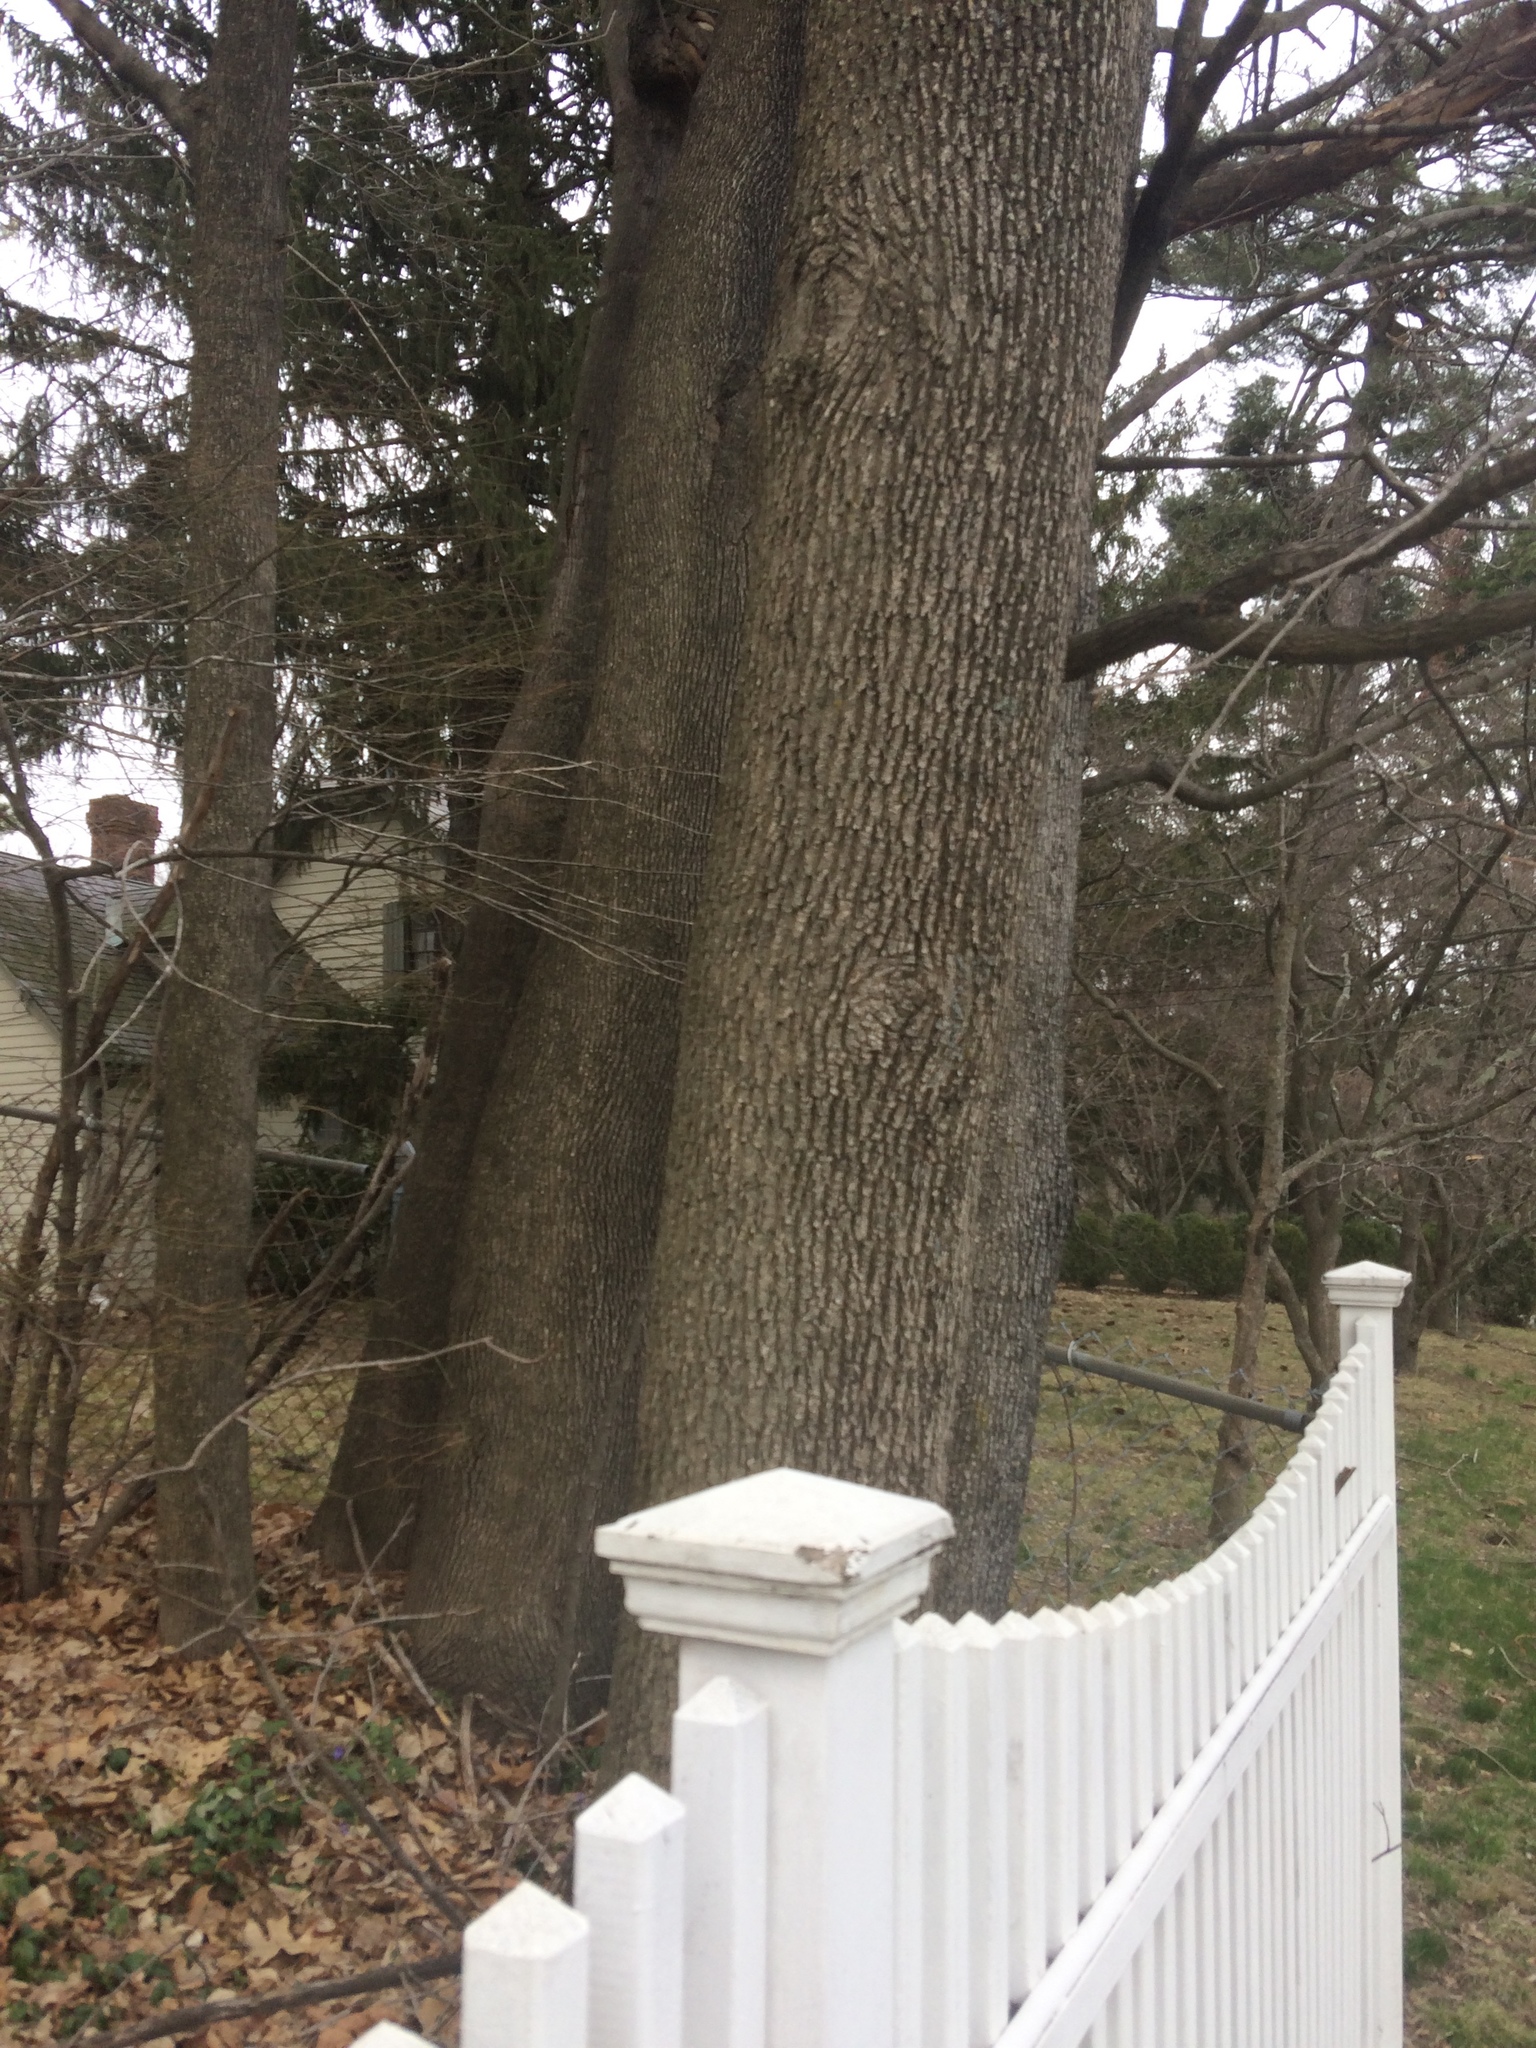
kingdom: Plantae
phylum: Tracheophyta
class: Magnoliopsida
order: Lamiales
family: Oleaceae
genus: Fraxinus
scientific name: Fraxinus americana
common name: White ash
